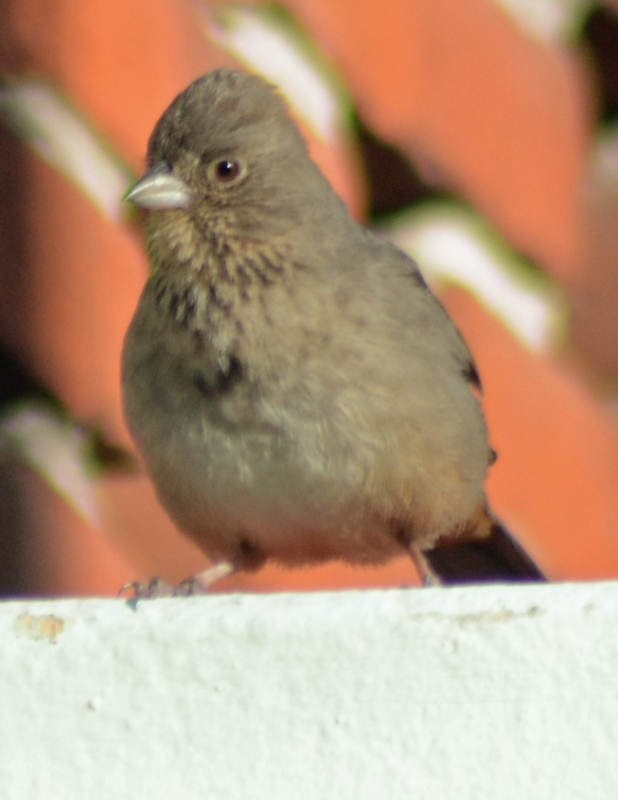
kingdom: Animalia
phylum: Chordata
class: Aves
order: Passeriformes
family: Passerellidae
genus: Melozone
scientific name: Melozone fusca
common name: Canyon towhee
